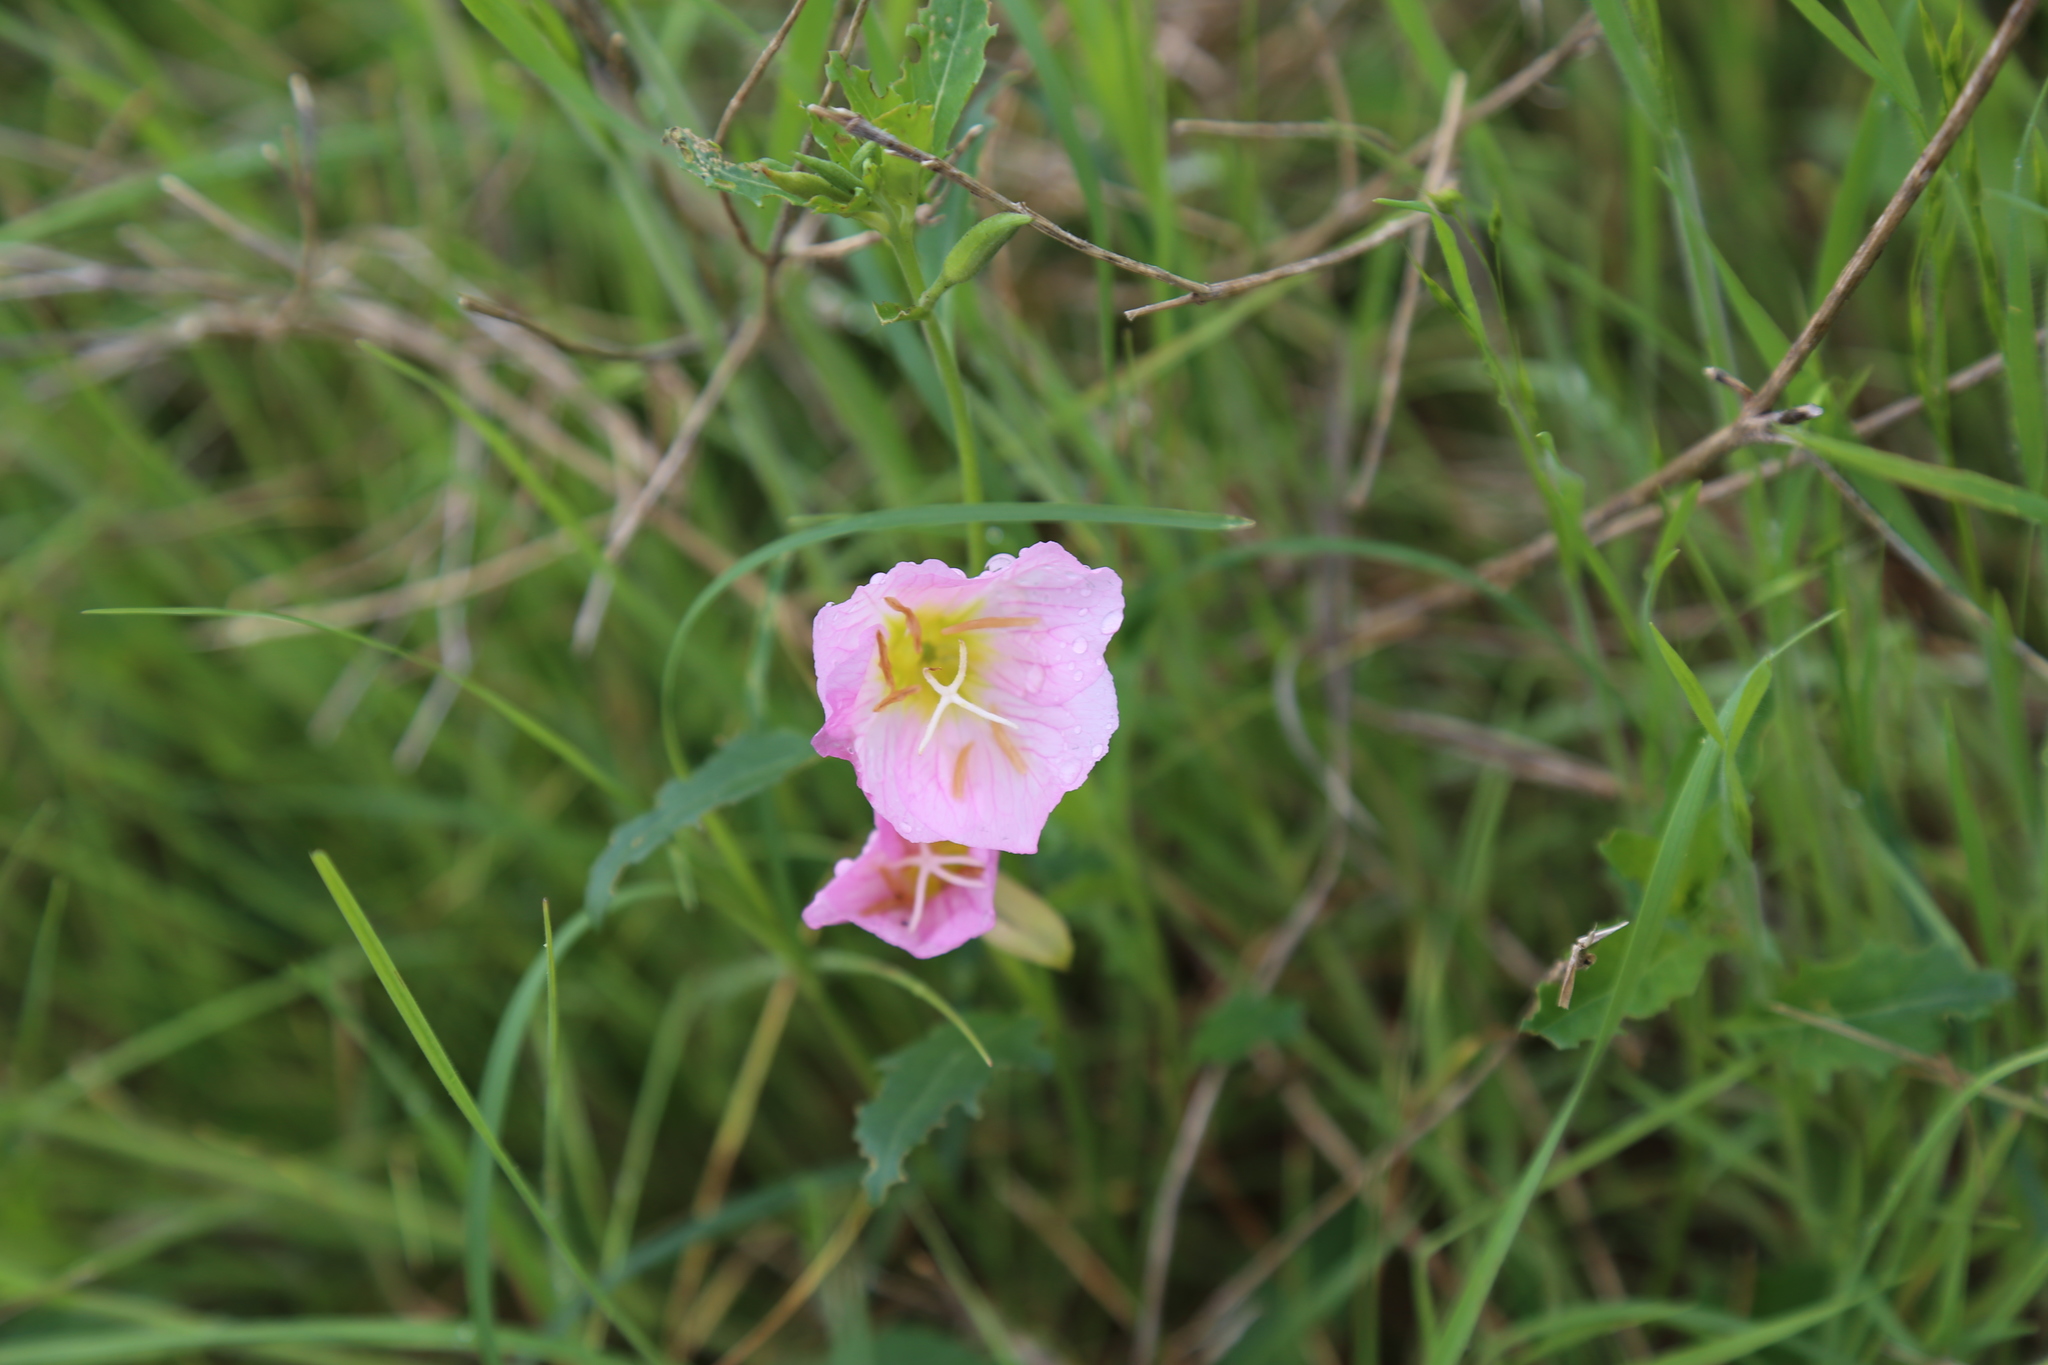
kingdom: Plantae
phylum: Tracheophyta
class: Magnoliopsida
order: Myrtales
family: Onagraceae
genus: Oenothera
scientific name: Oenothera speciosa
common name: White evening-primrose
